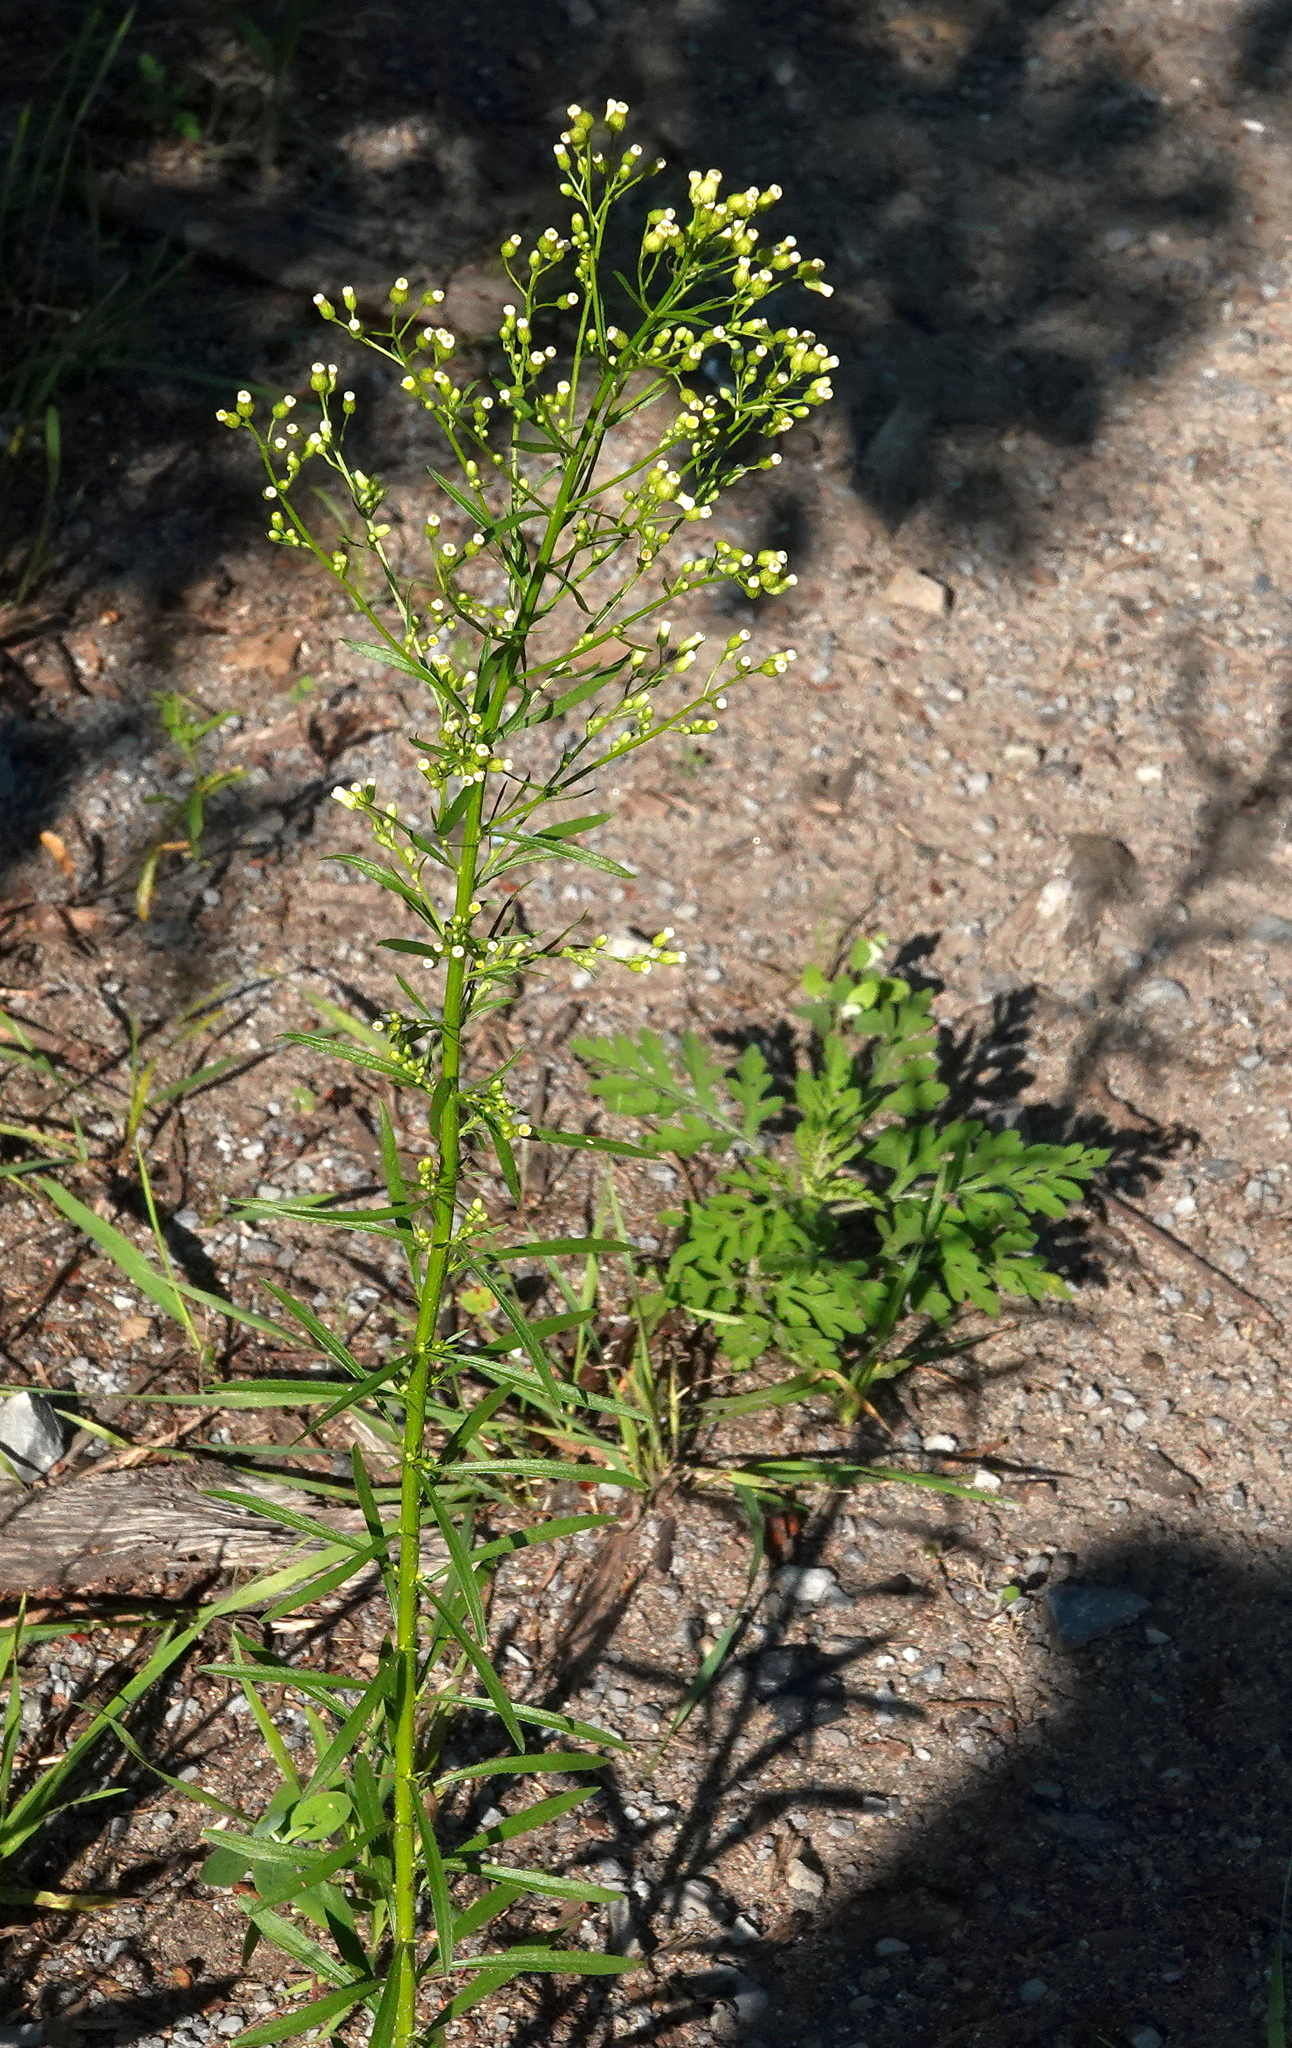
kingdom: Plantae
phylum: Tracheophyta
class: Magnoliopsida
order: Asterales
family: Asteraceae
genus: Erigeron
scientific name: Erigeron canadensis
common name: Canadian fleabane
